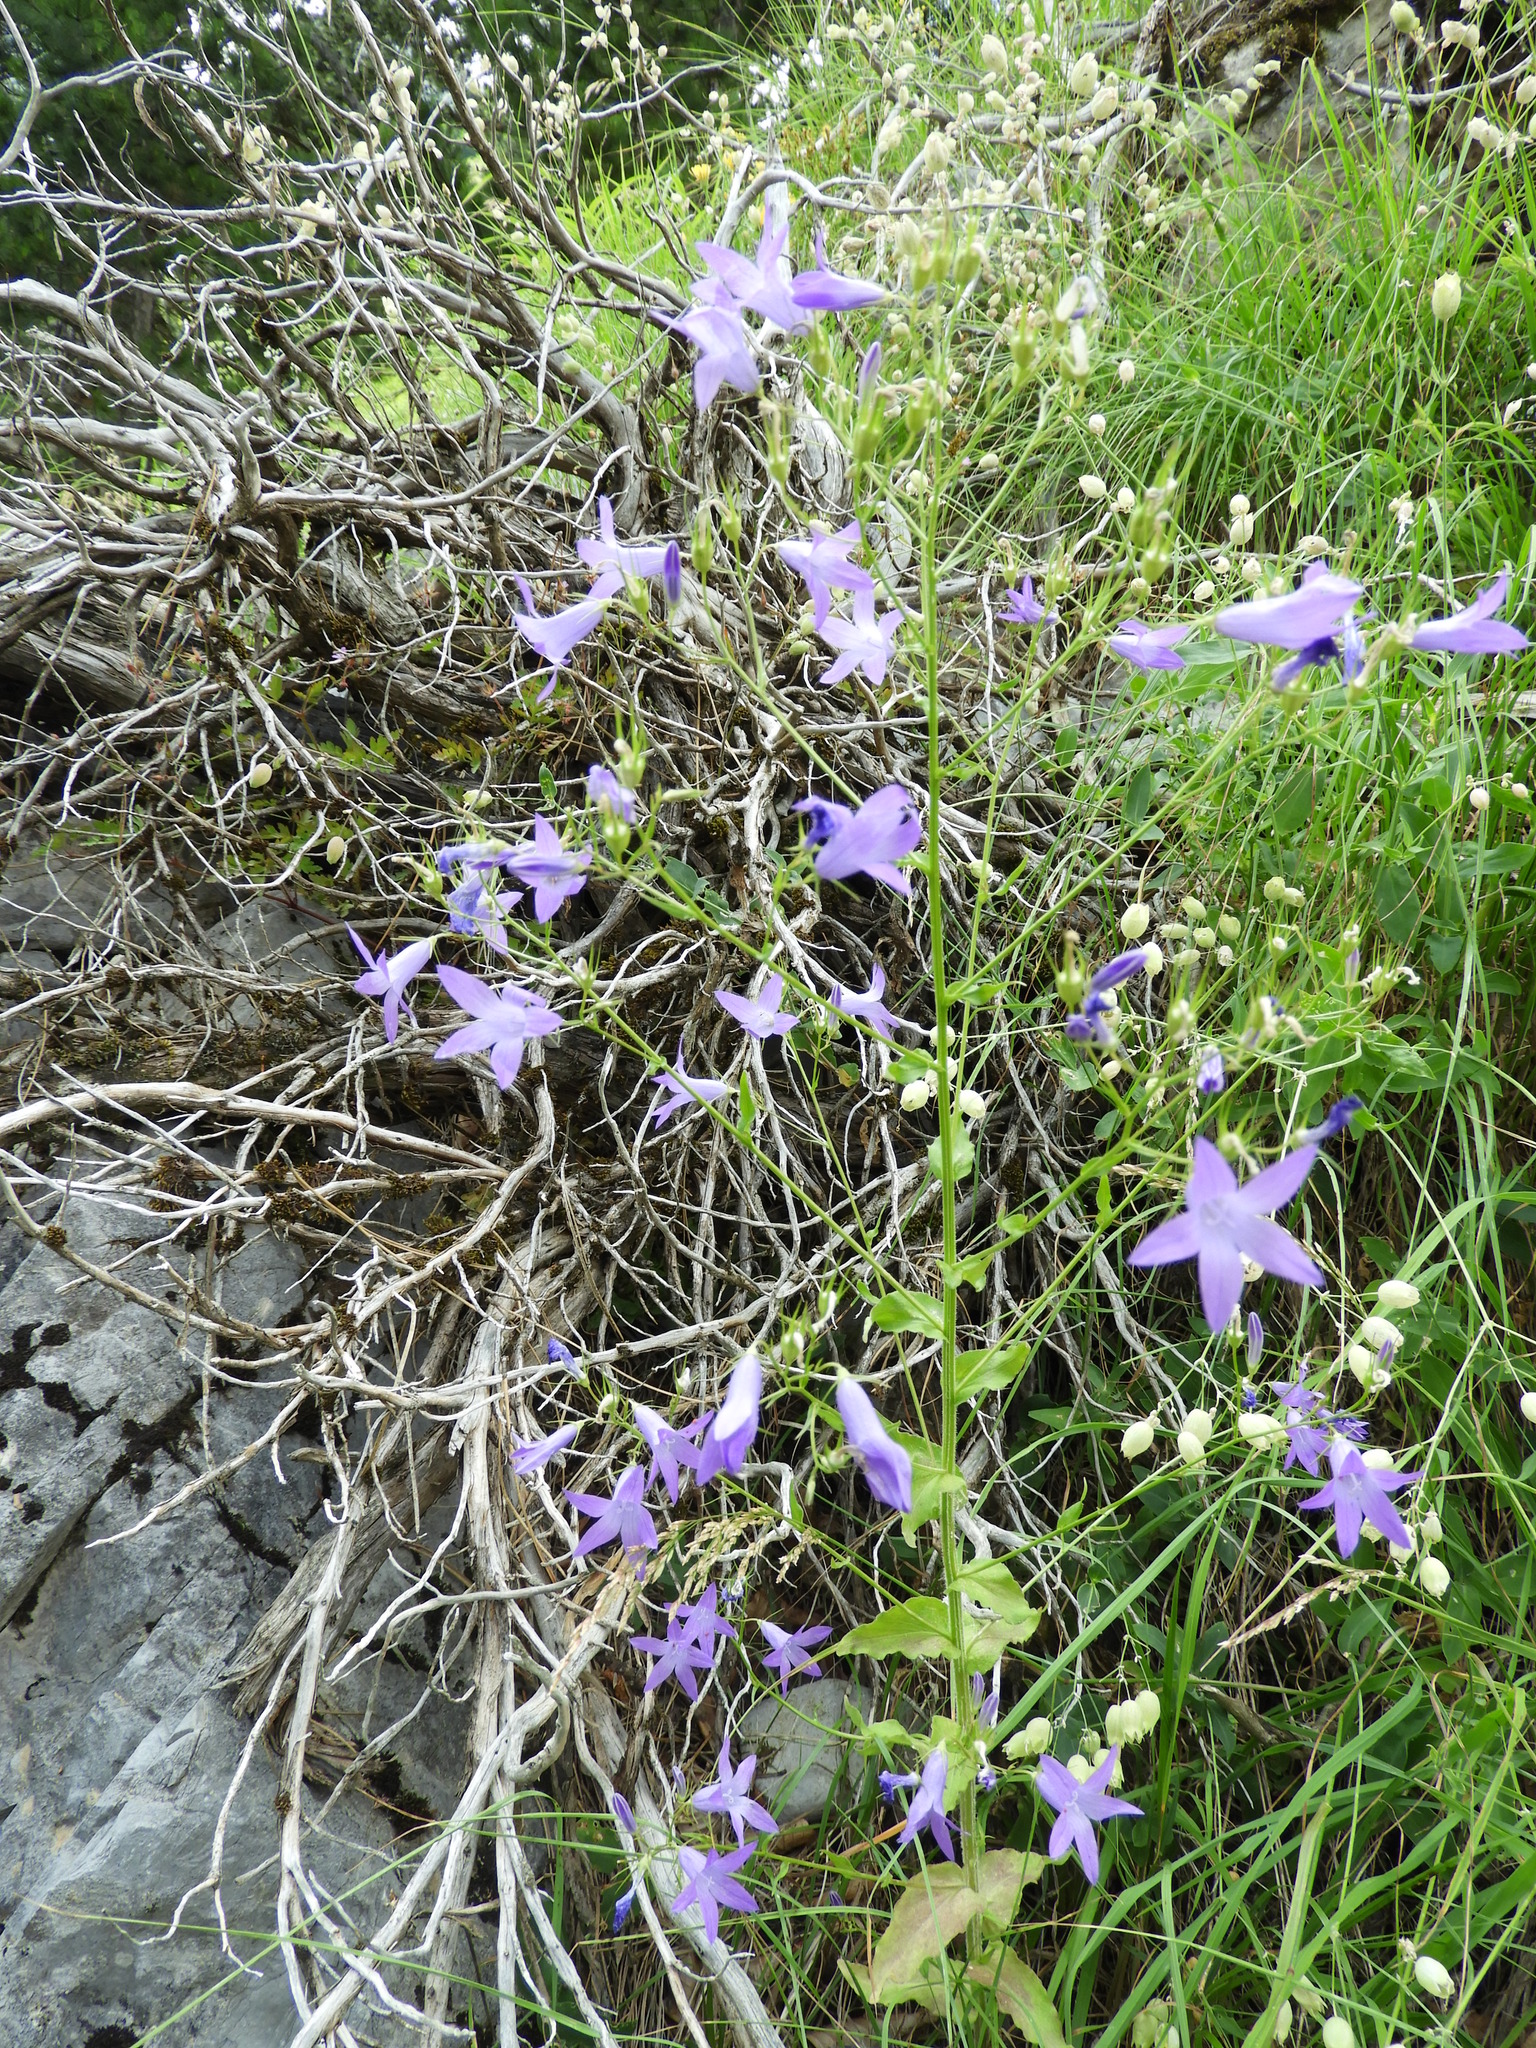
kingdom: Plantae
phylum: Tracheophyta
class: Magnoliopsida
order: Asterales
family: Campanulaceae
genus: Campanula
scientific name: Campanula patula
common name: Spreading bellflower
